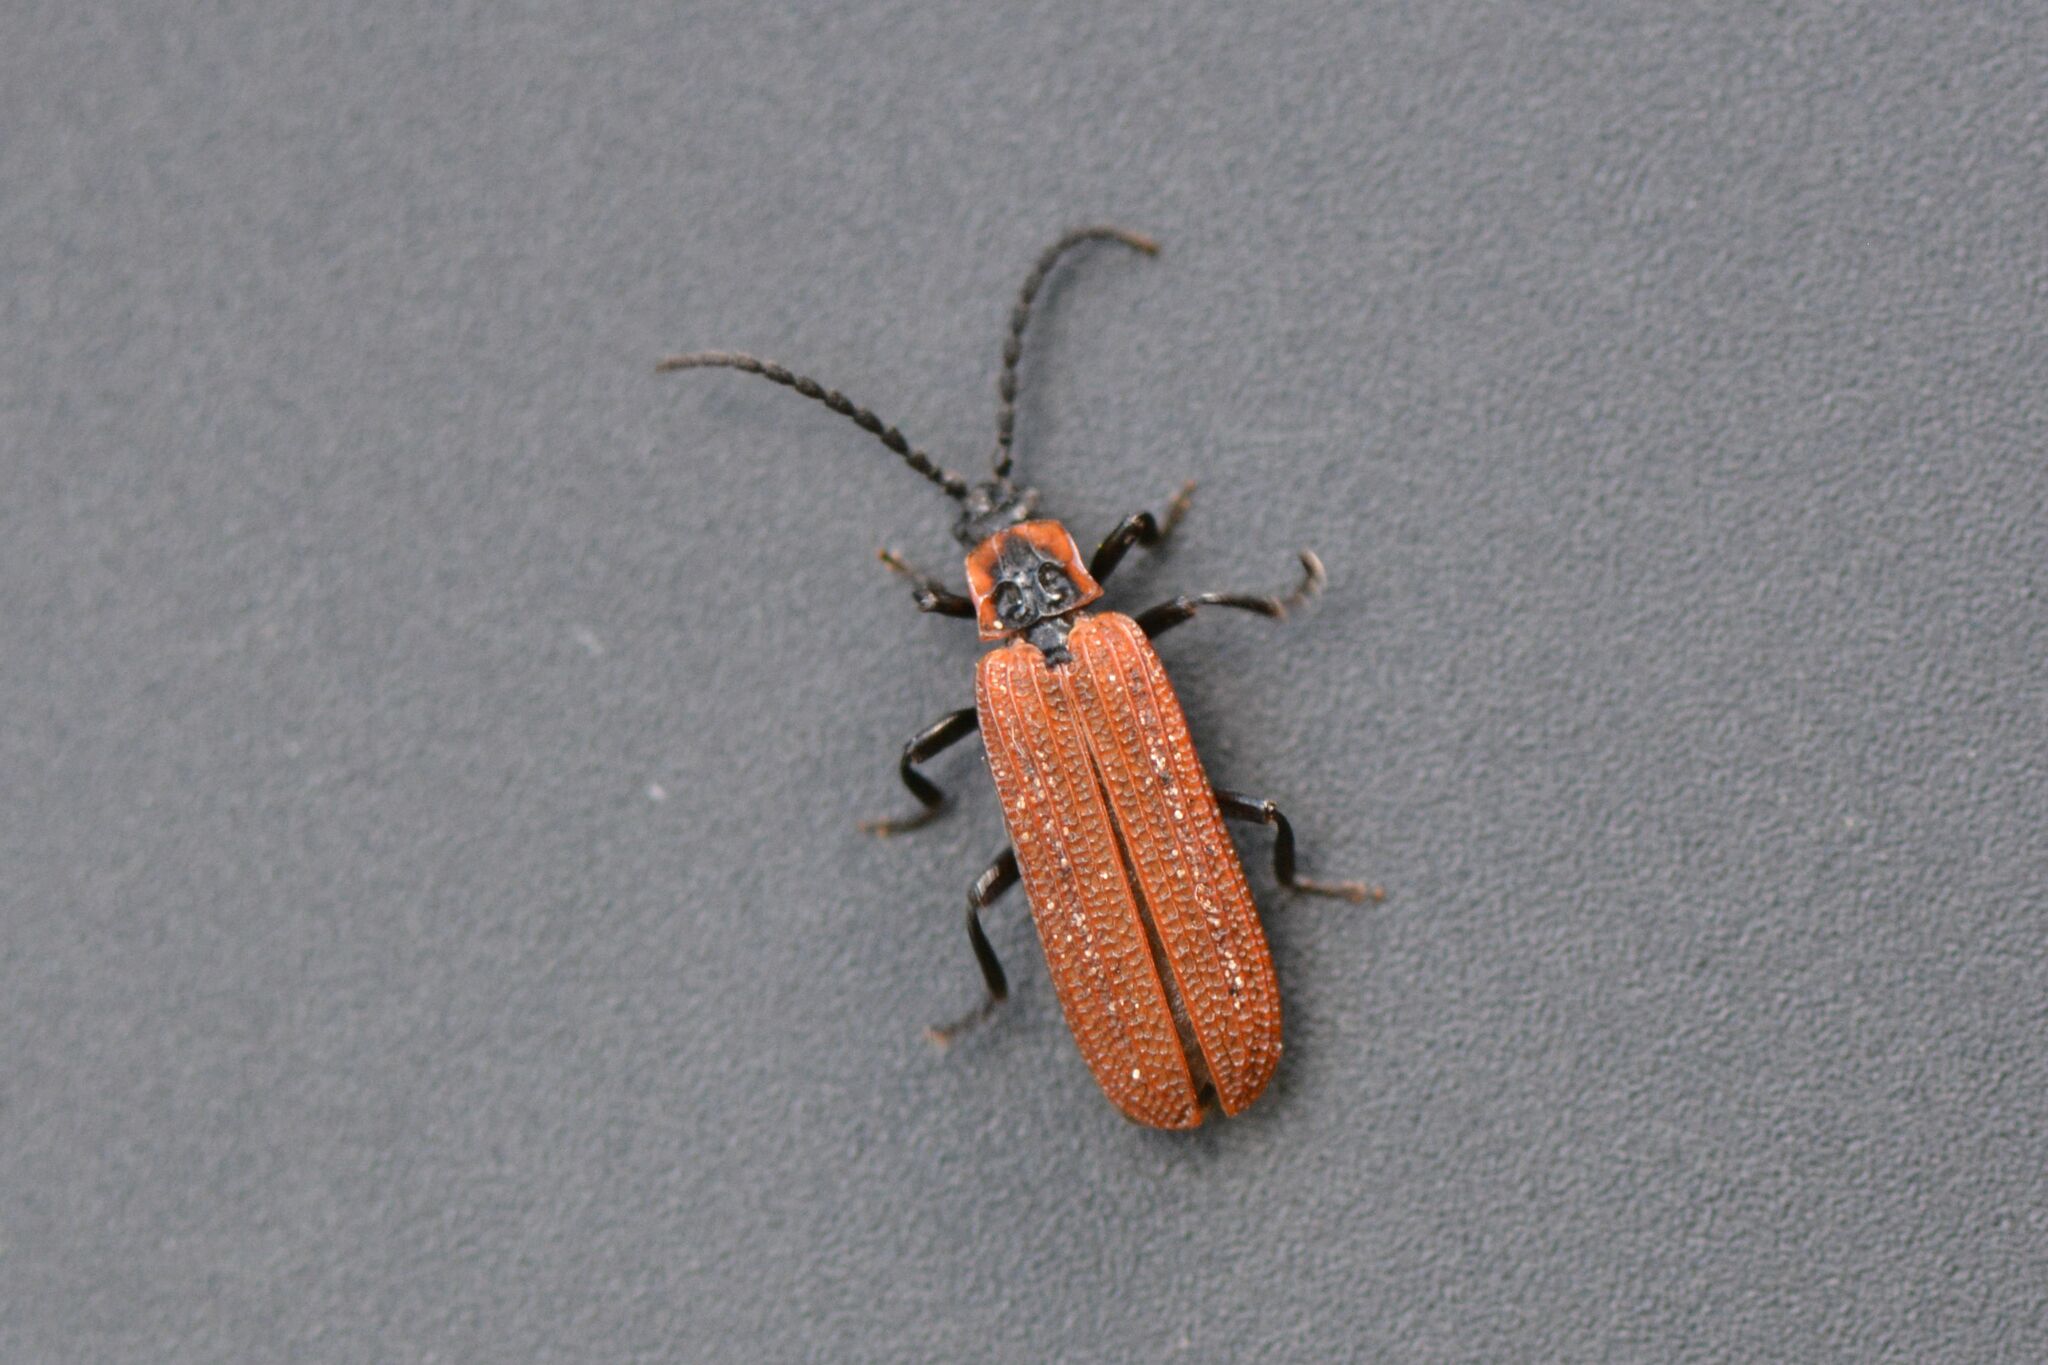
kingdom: Animalia
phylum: Arthropoda
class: Insecta
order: Coleoptera
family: Lycidae
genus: Erotides
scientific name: Erotides cosnardi
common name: Cosnard's net-winged beetle
